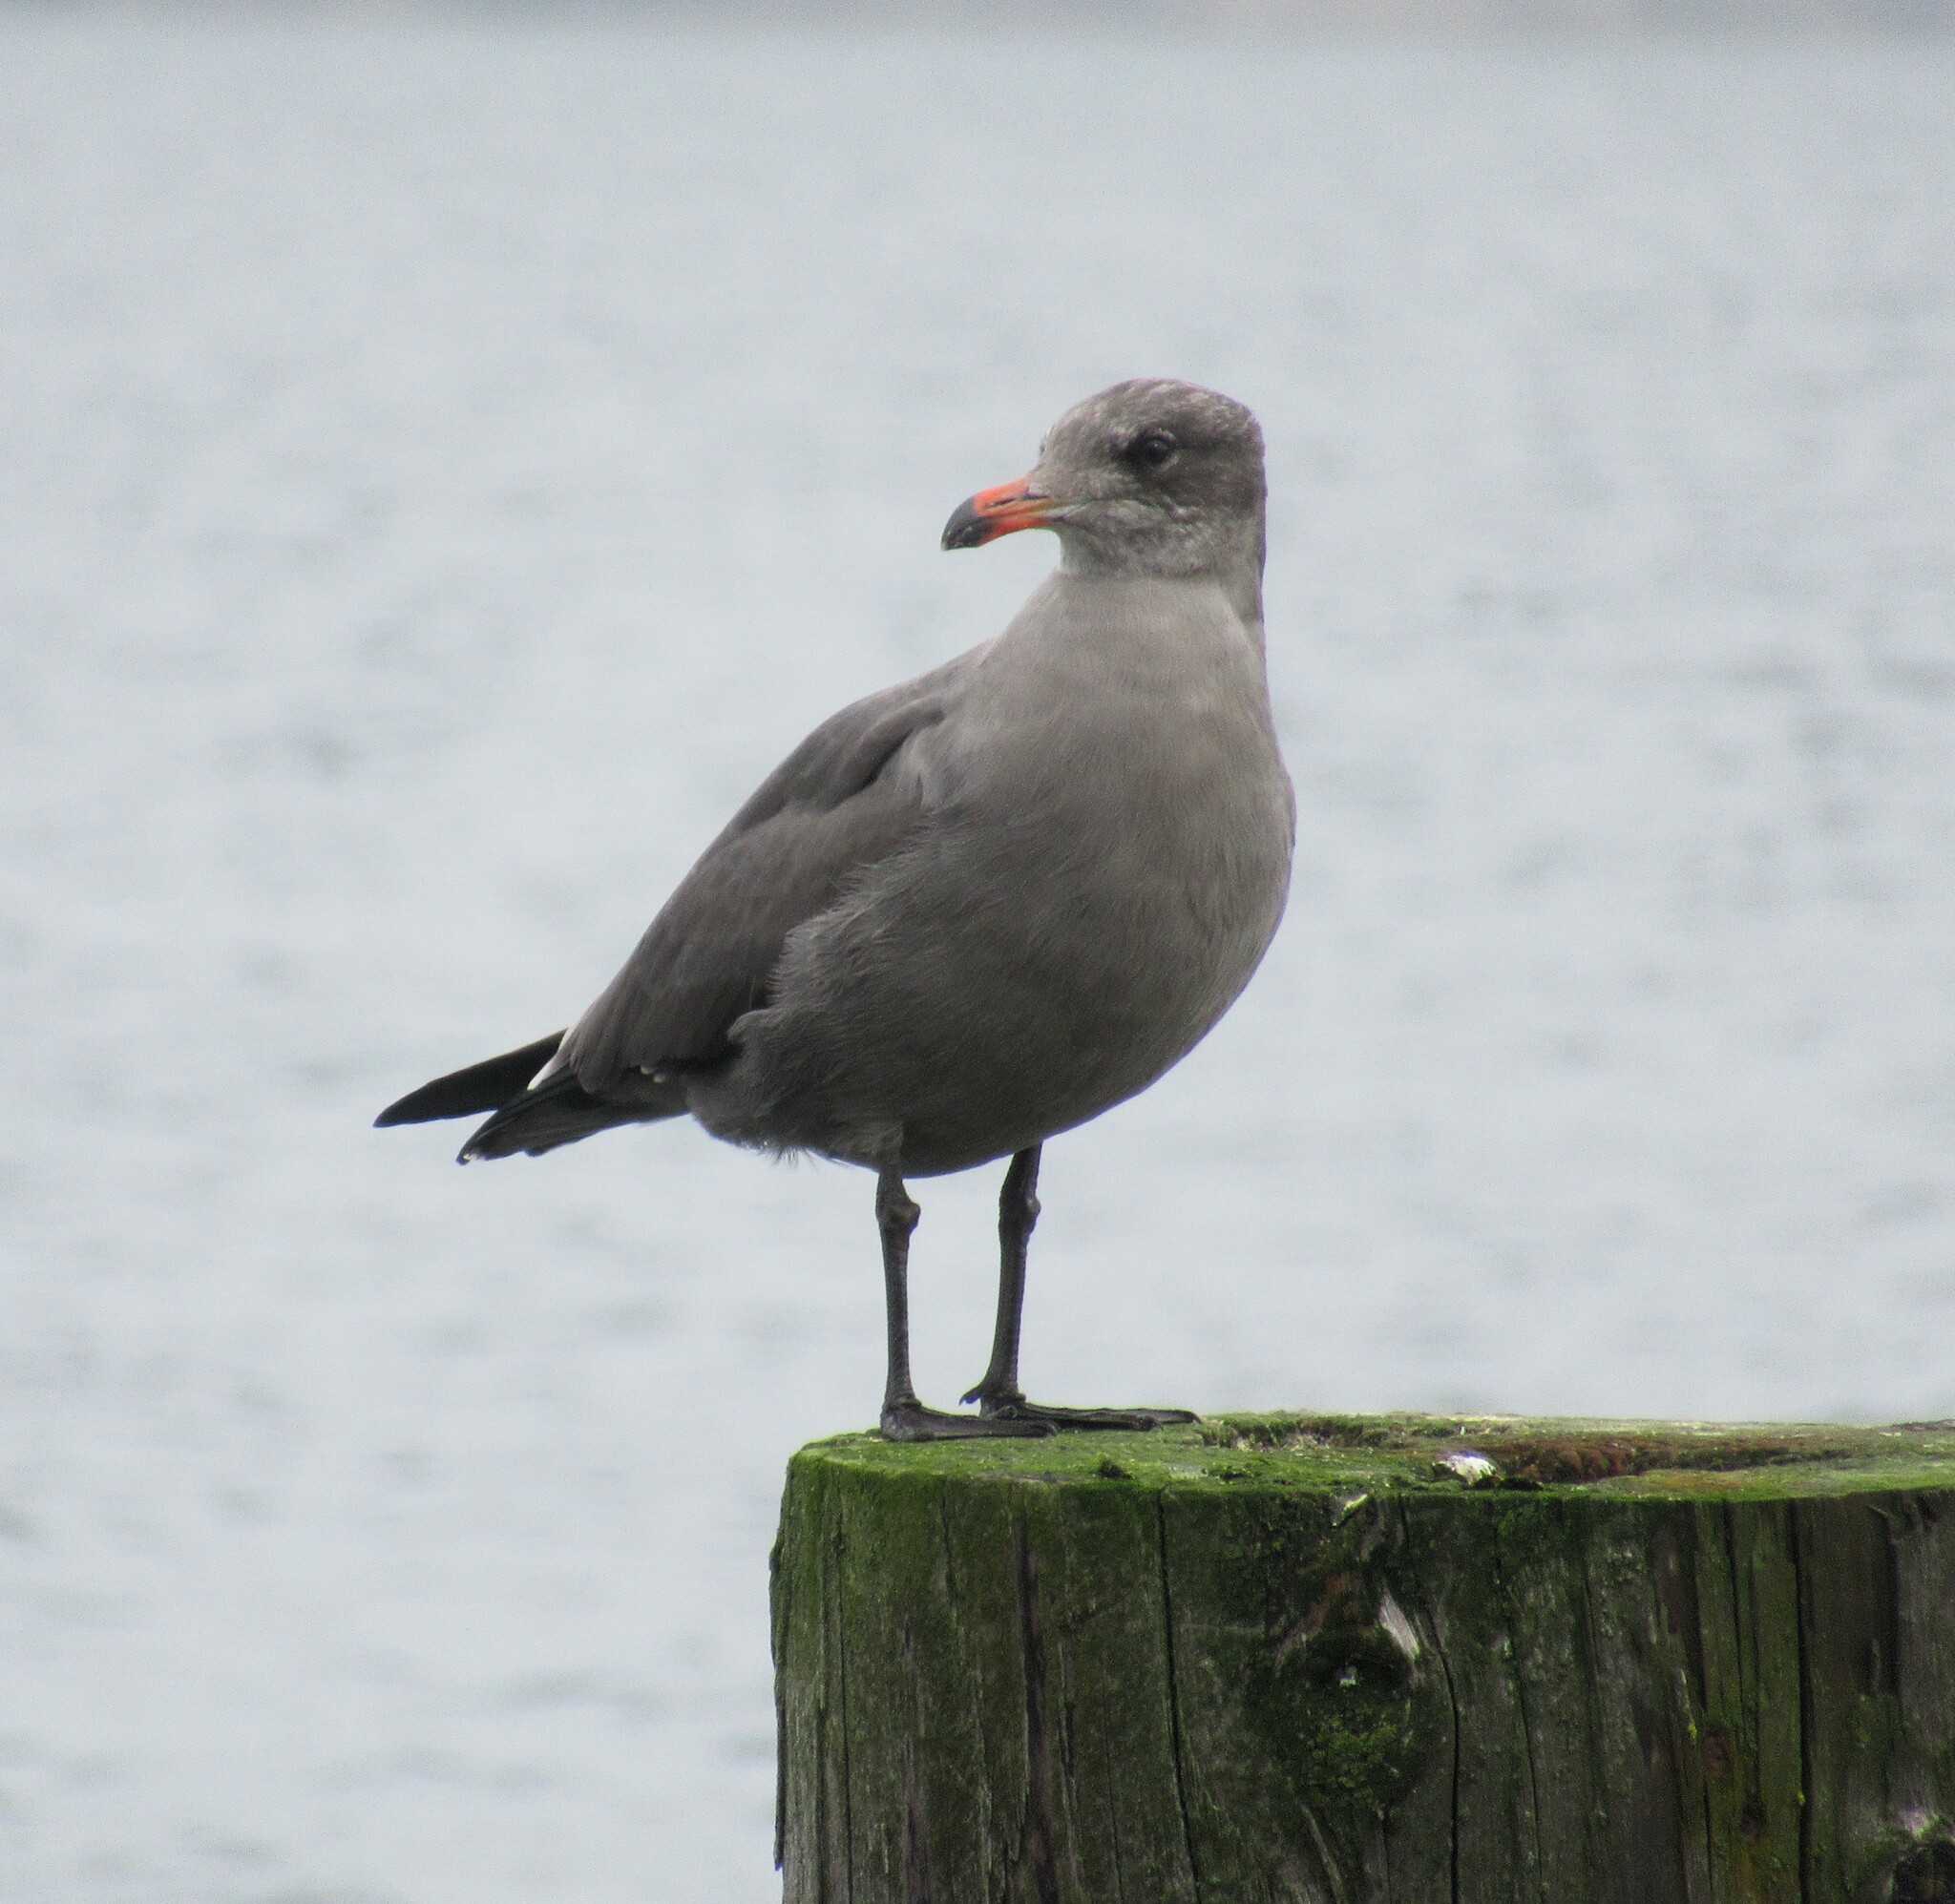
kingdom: Animalia
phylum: Chordata
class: Aves
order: Charadriiformes
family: Laridae
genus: Larus
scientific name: Larus heermanni
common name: Heermann's gull
